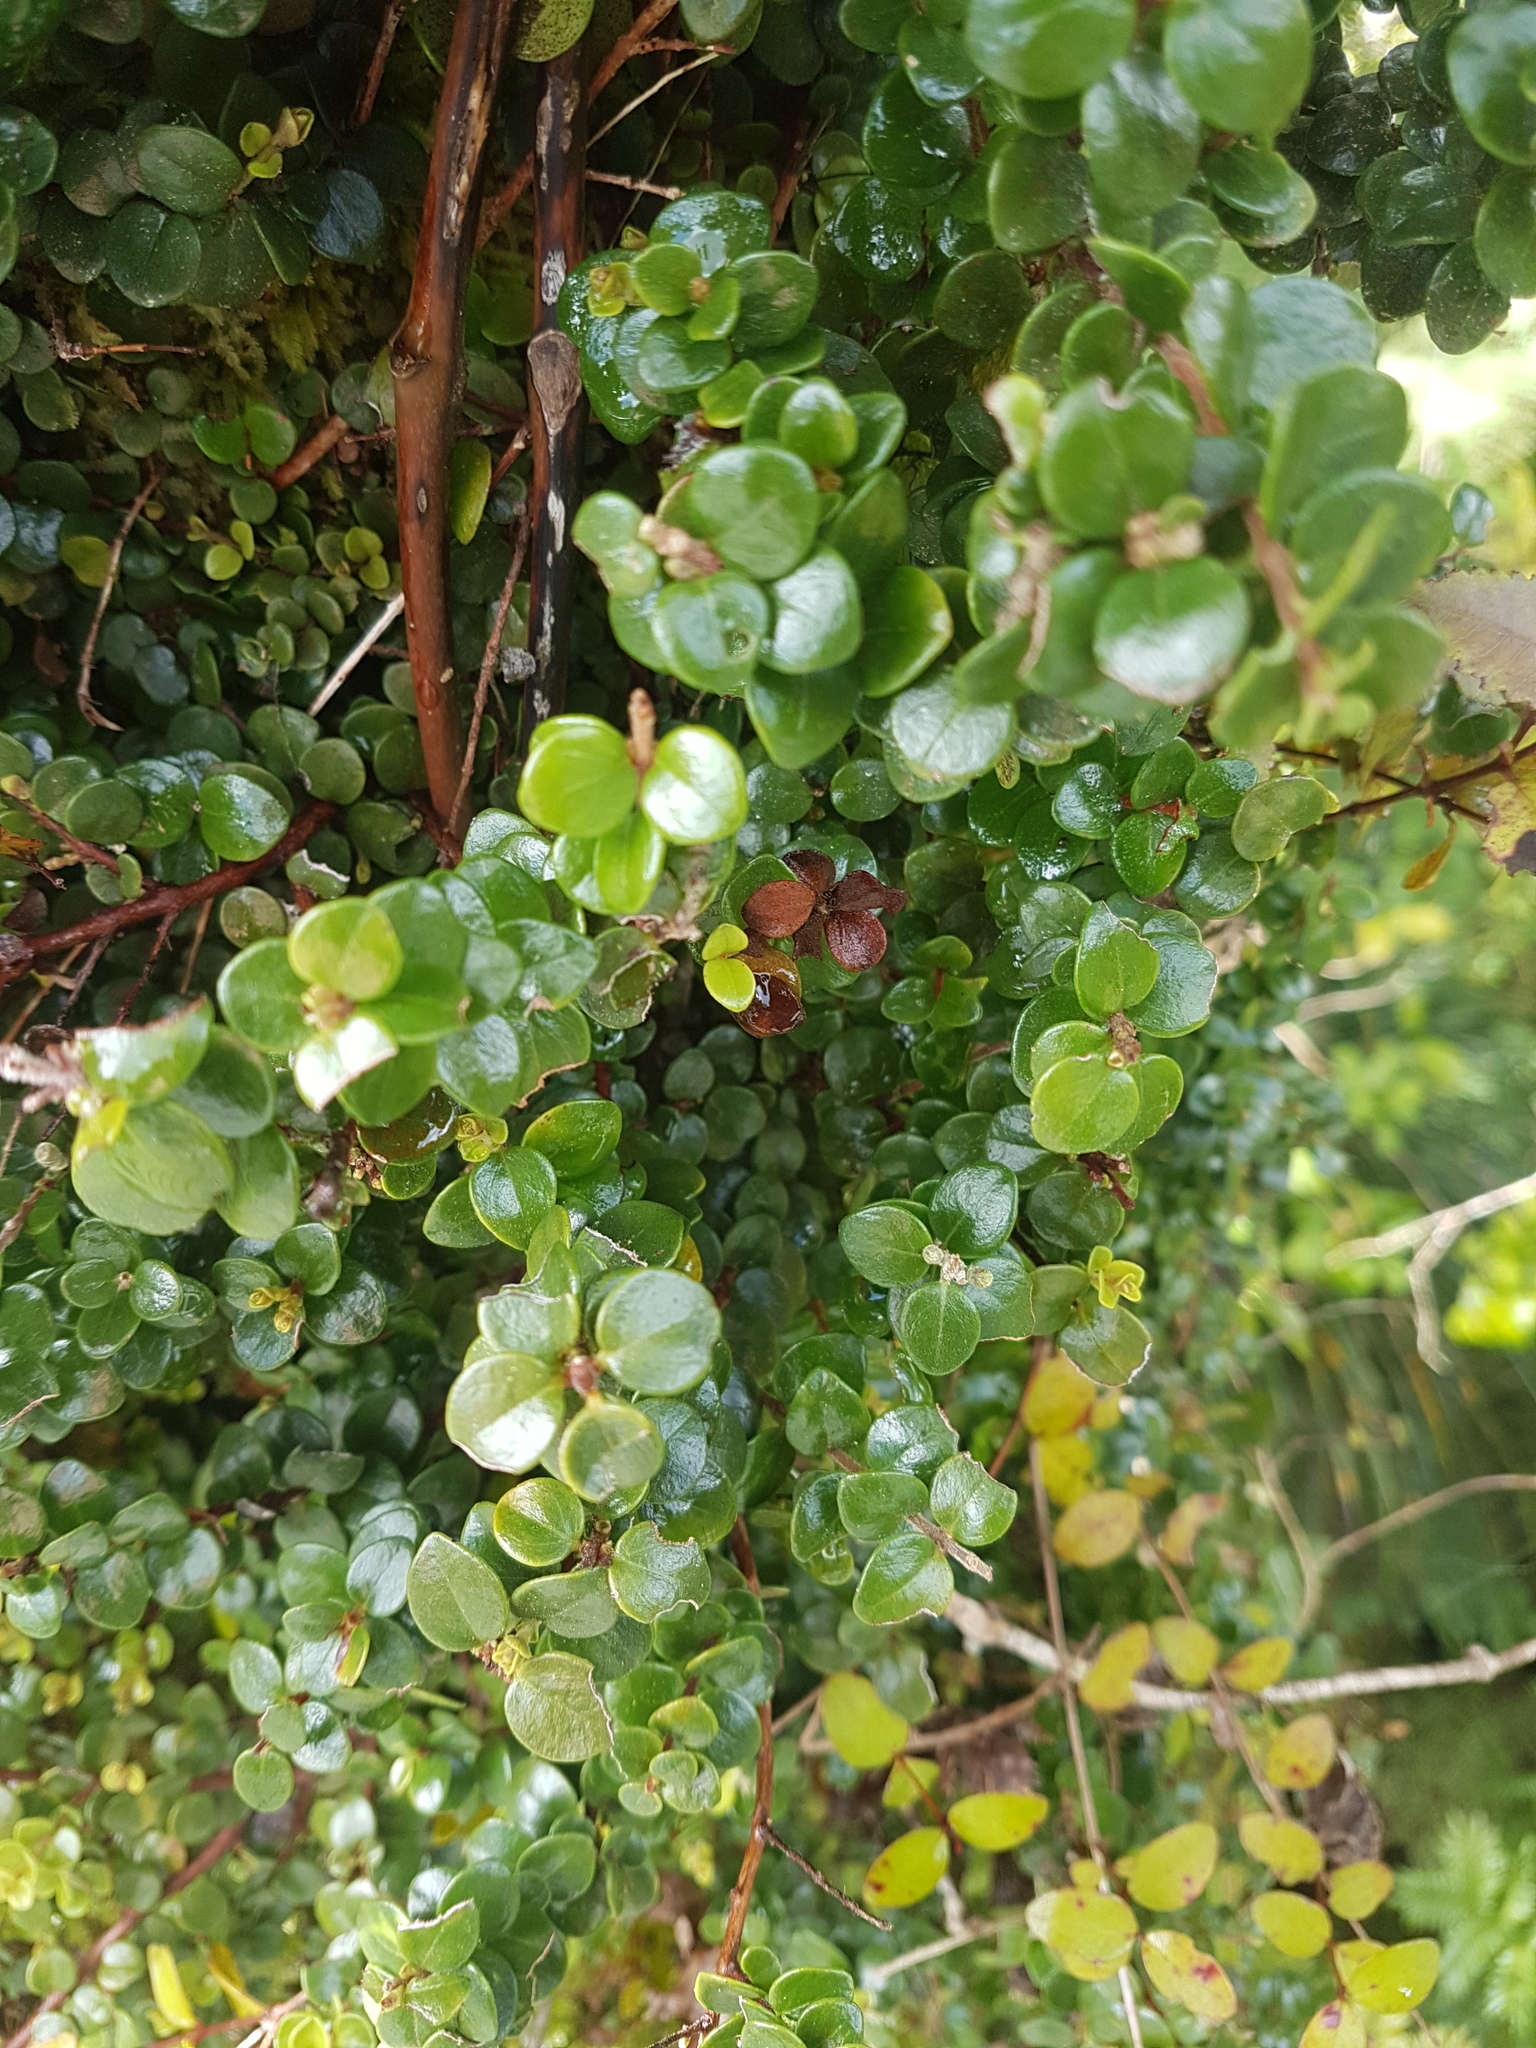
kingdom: Plantae
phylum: Tracheophyta
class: Magnoliopsida
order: Myrtales
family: Myrtaceae
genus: Metrosideros
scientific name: Metrosideros perforata
